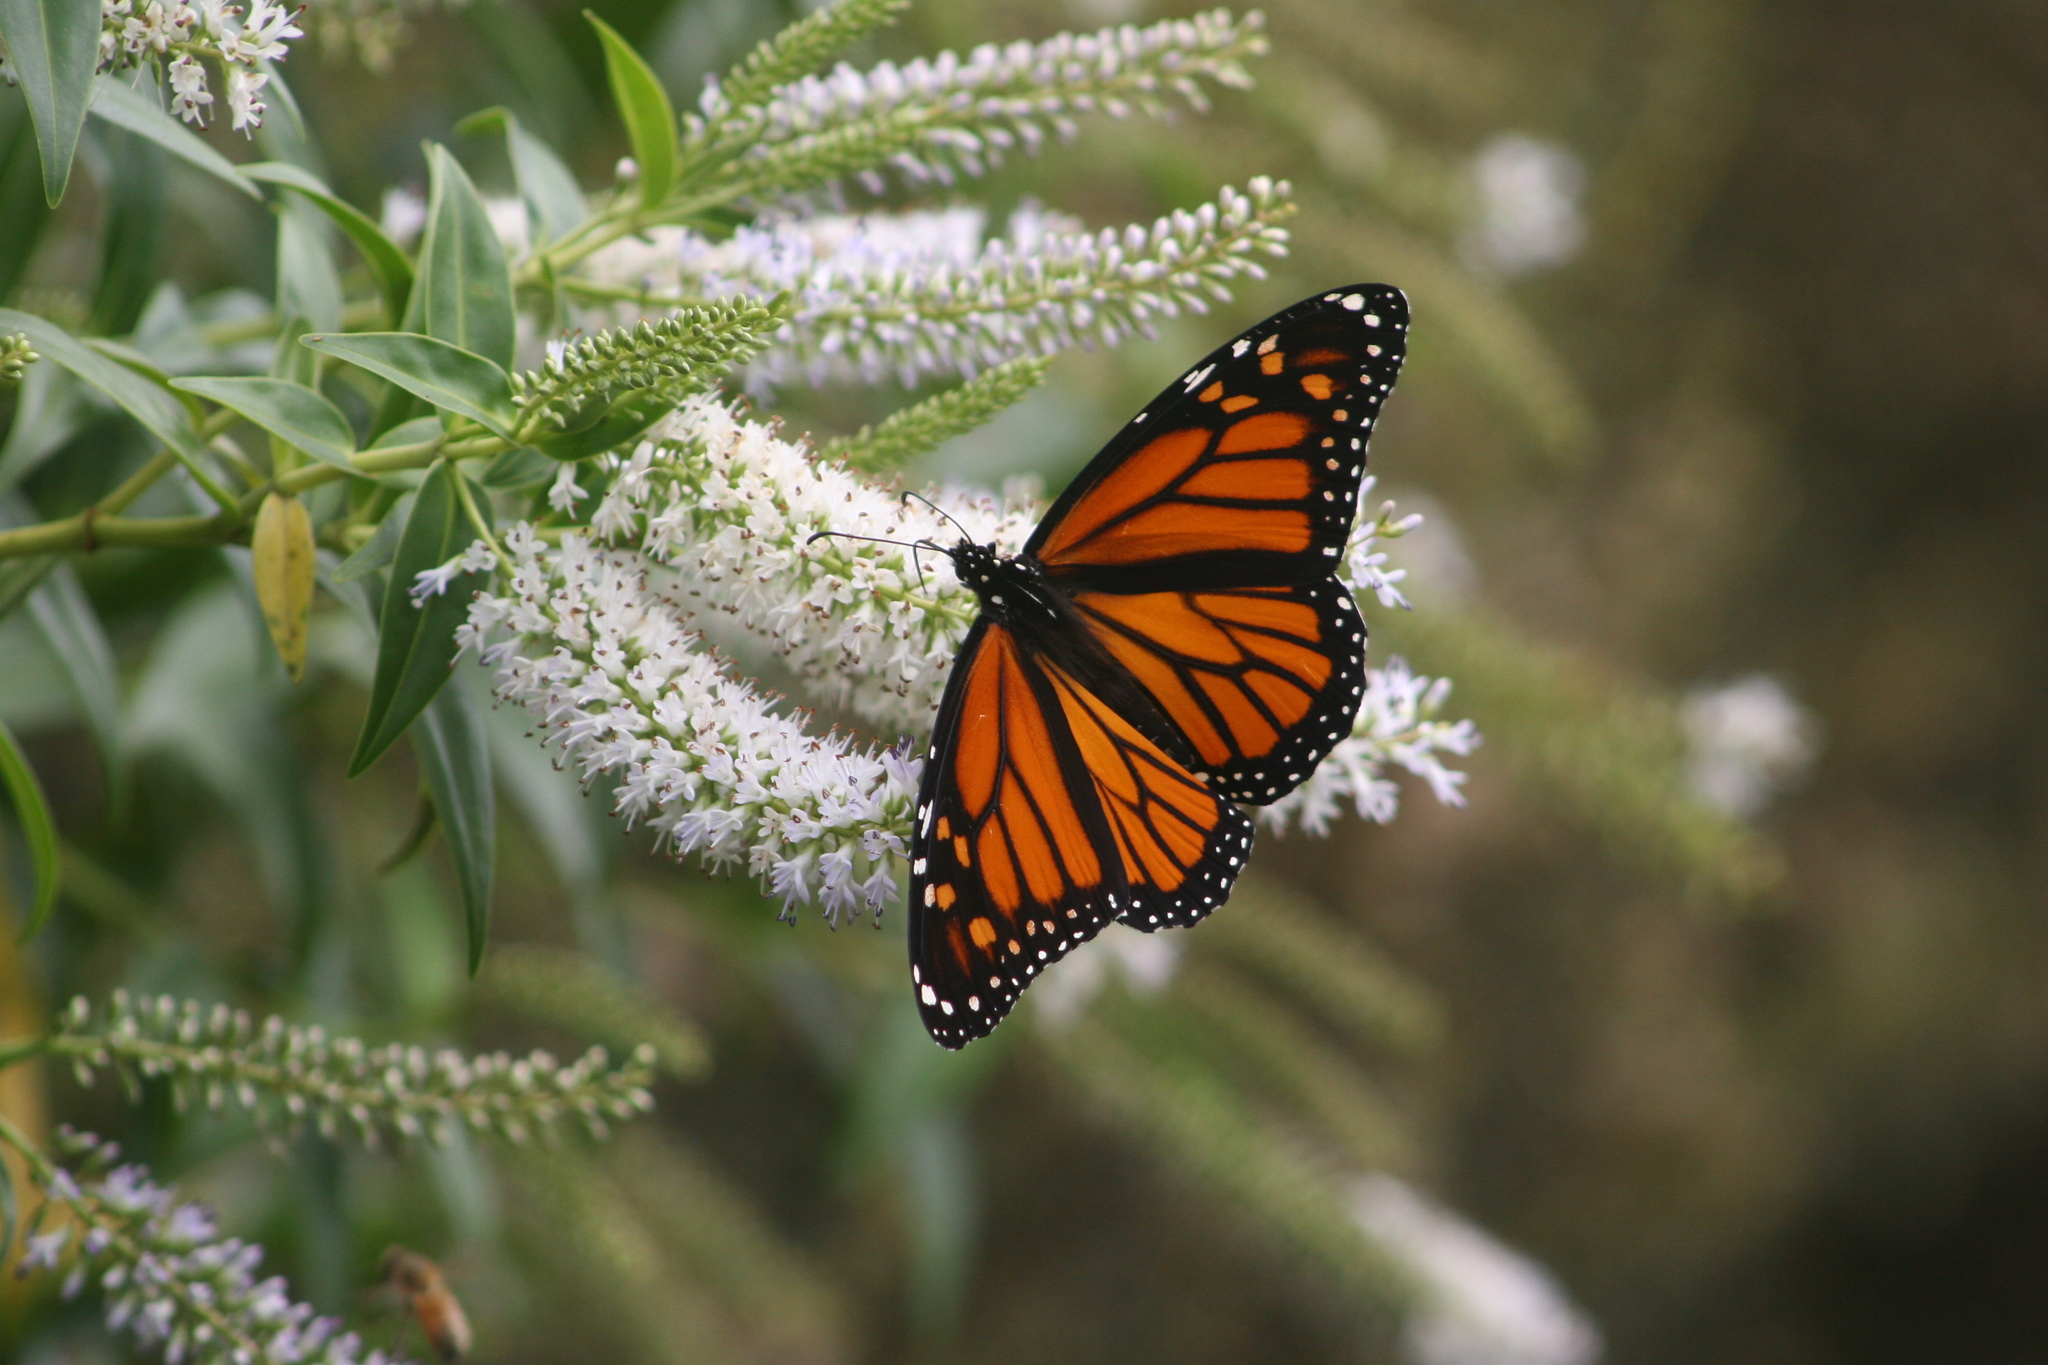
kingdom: Animalia
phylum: Arthropoda
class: Insecta
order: Lepidoptera
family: Nymphalidae
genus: Danaus
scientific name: Danaus plexippus
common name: Monarch
